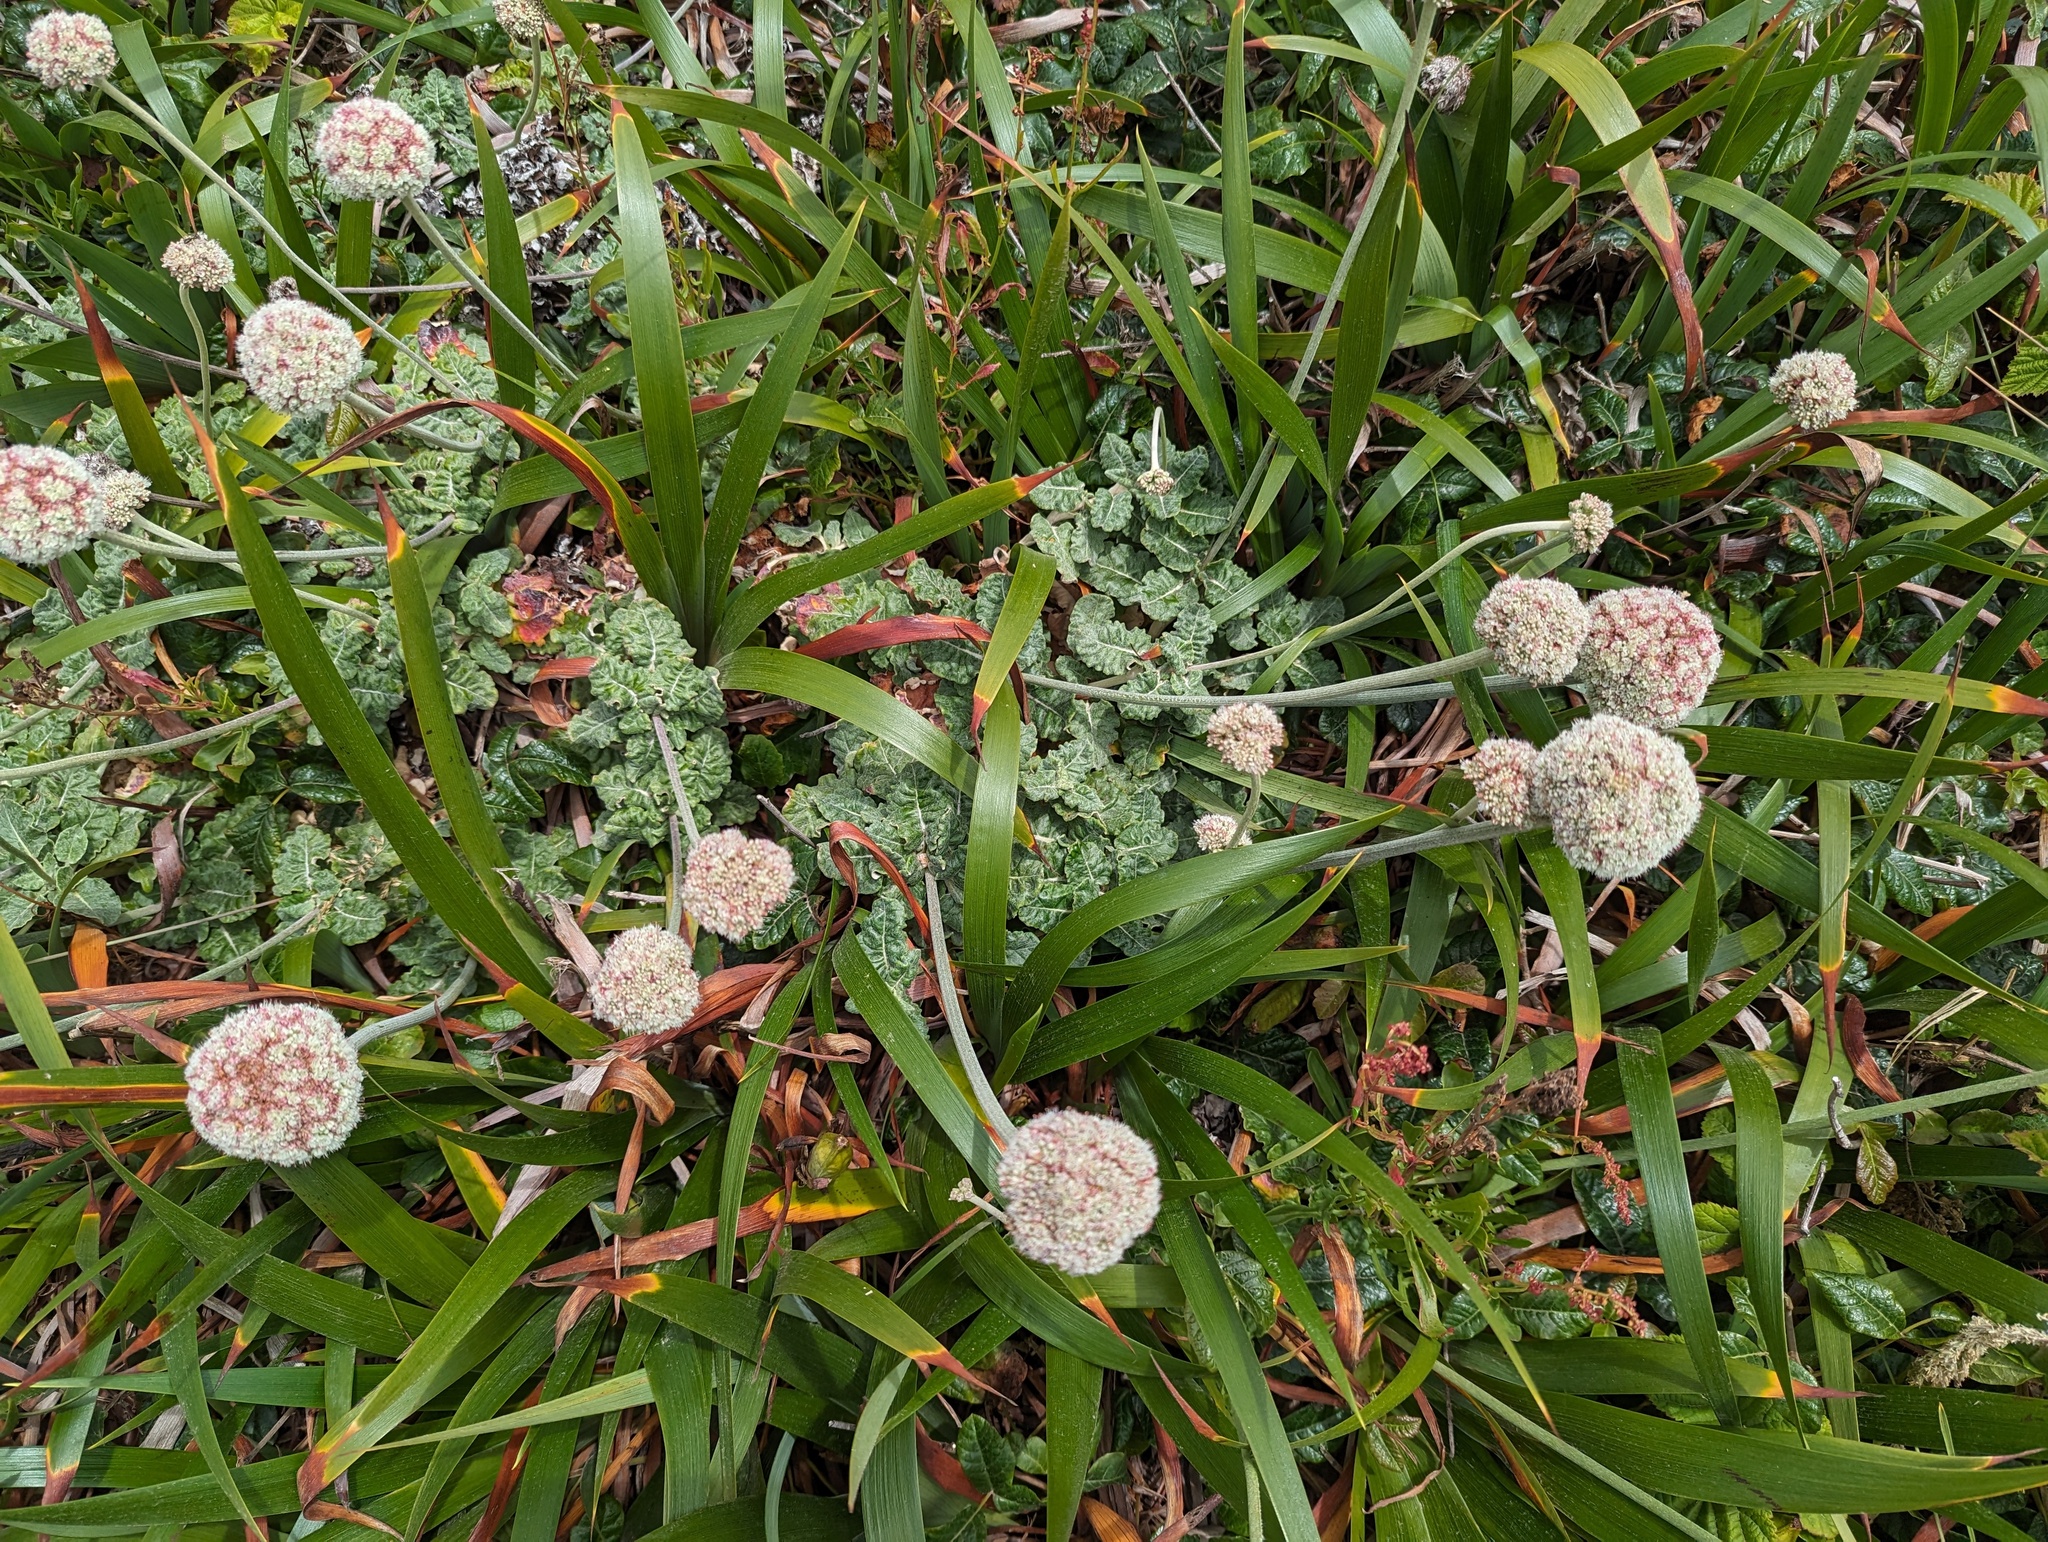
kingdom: Plantae
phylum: Tracheophyta
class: Magnoliopsida
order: Caryophyllales
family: Polygonaceae
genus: Eriogonum
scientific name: Eriogonum latifolium
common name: Seaside wild buckwheat
